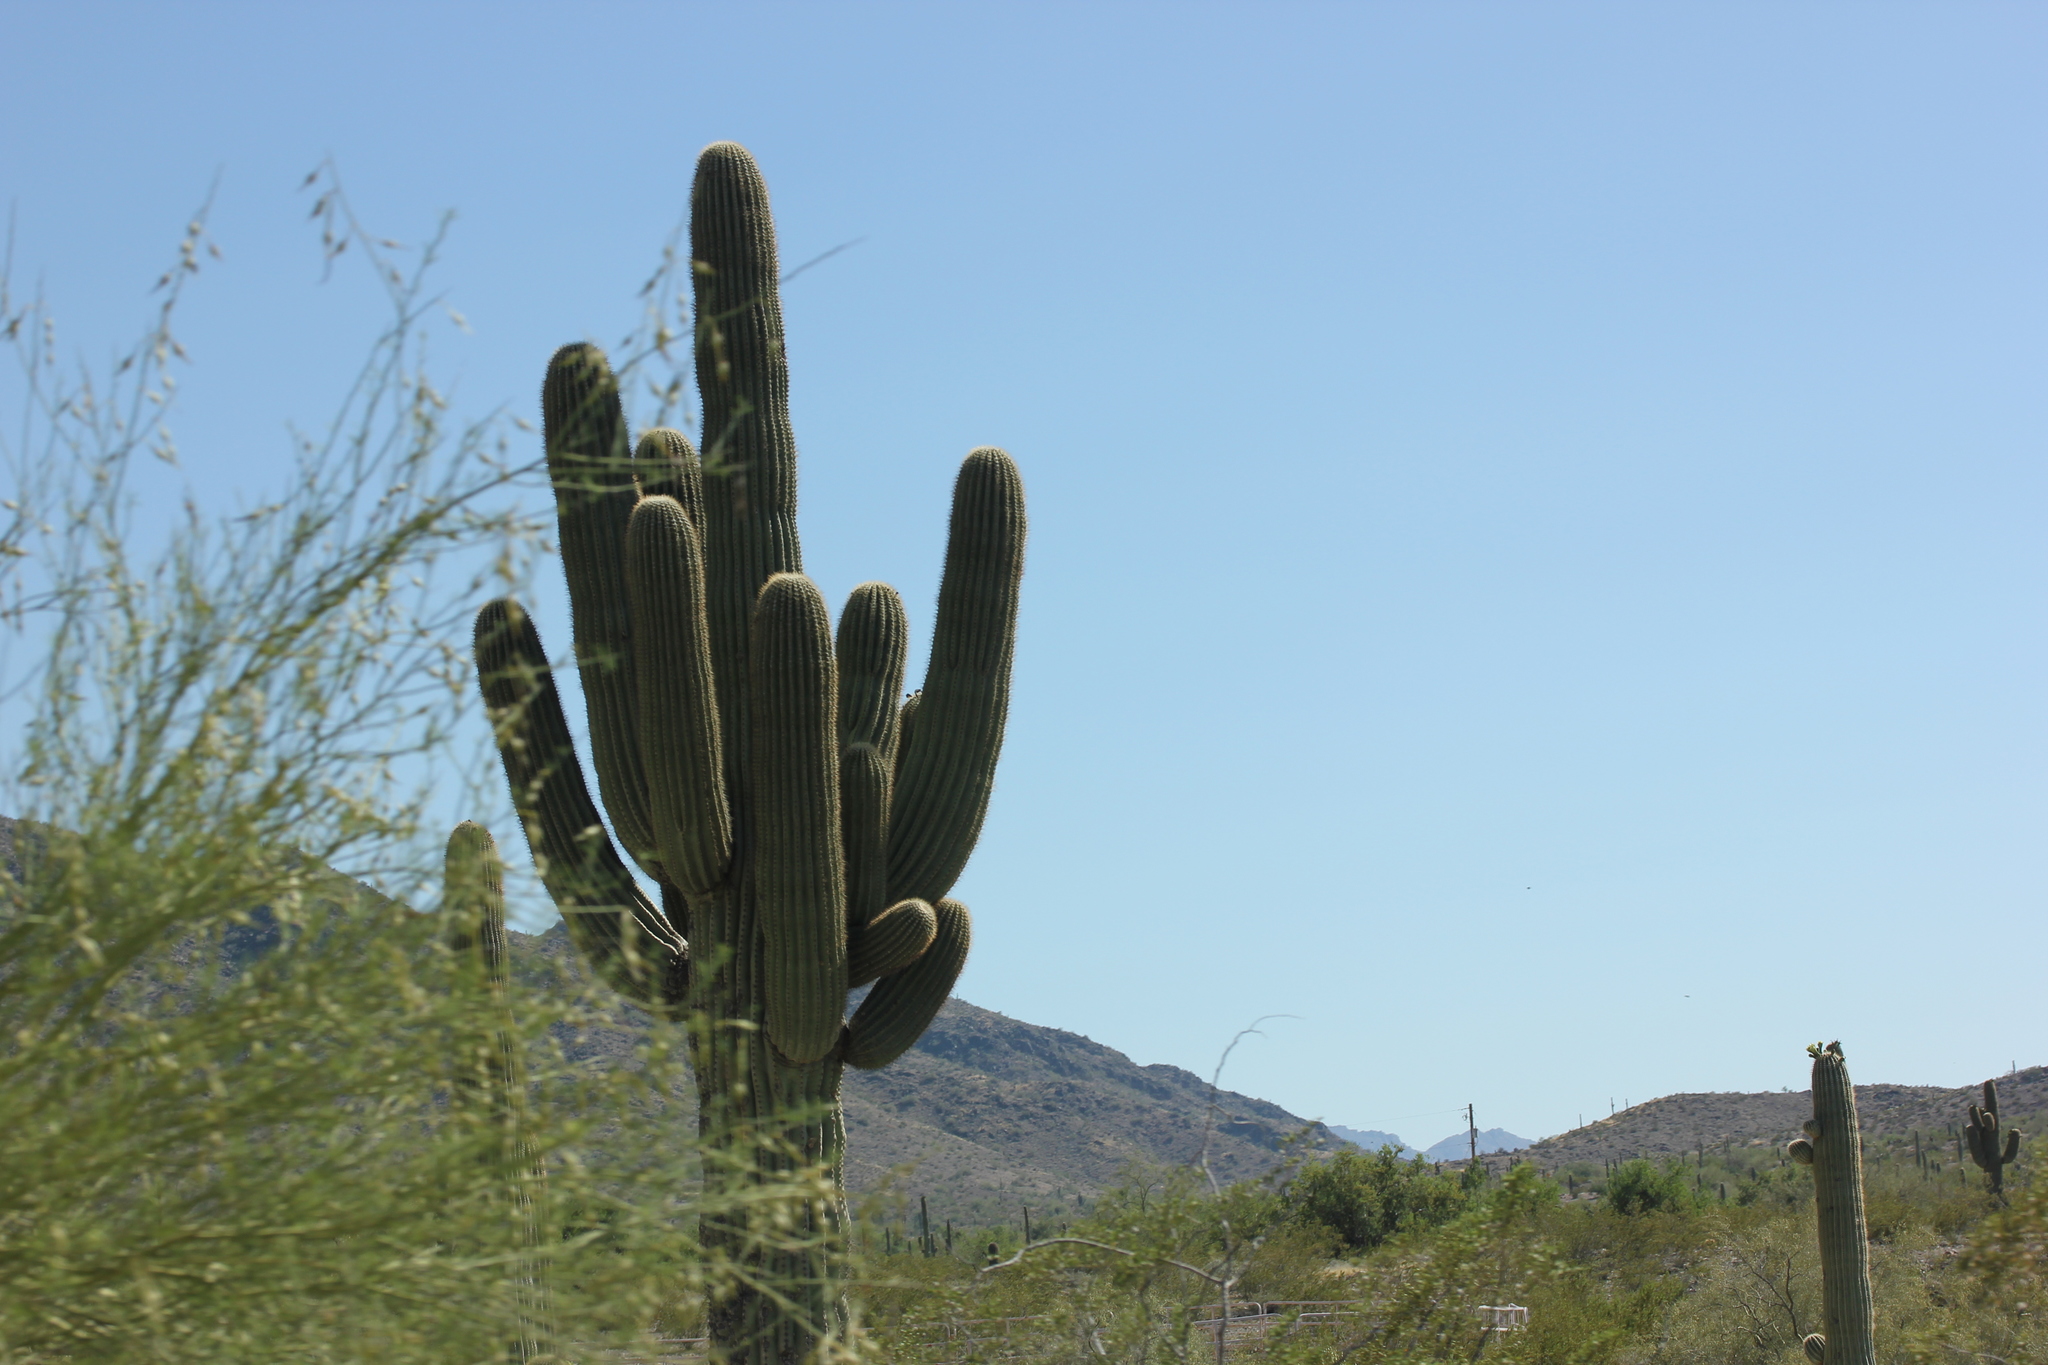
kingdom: Plantae
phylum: Tracheophyta
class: Magnoliopsida
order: Caryophyllales
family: Cactaceae
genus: Carnegiea
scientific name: Carnegiea gigantea
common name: Saguaro
